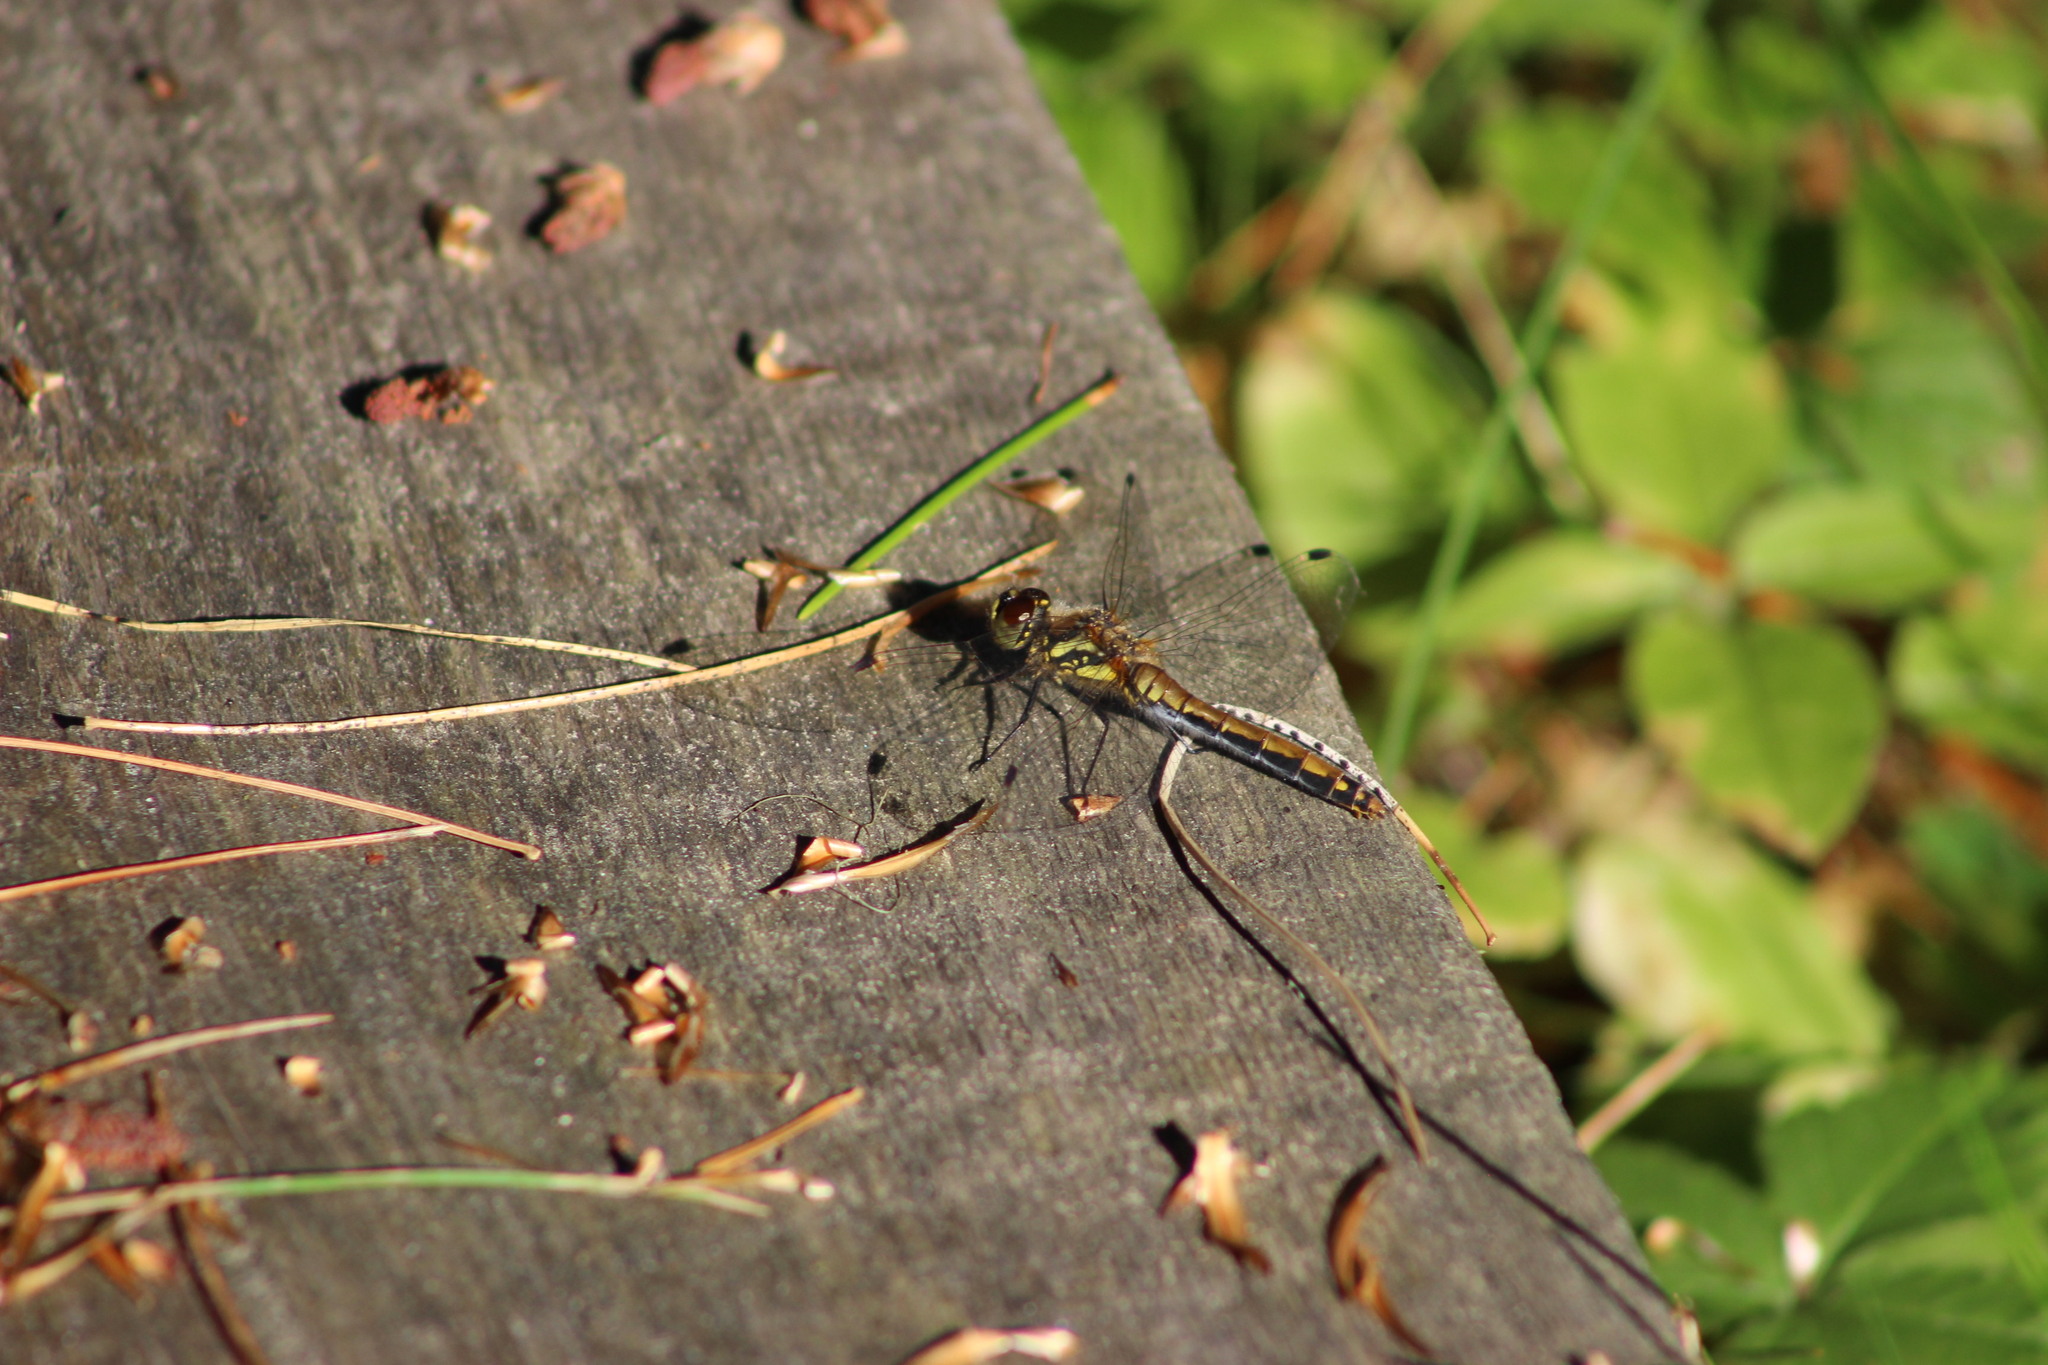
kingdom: Animalia
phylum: Arthropoda
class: Insecta
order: Odonata
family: Libellulidae
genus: Sympetrum
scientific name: Sympetrum danae
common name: Black darter
